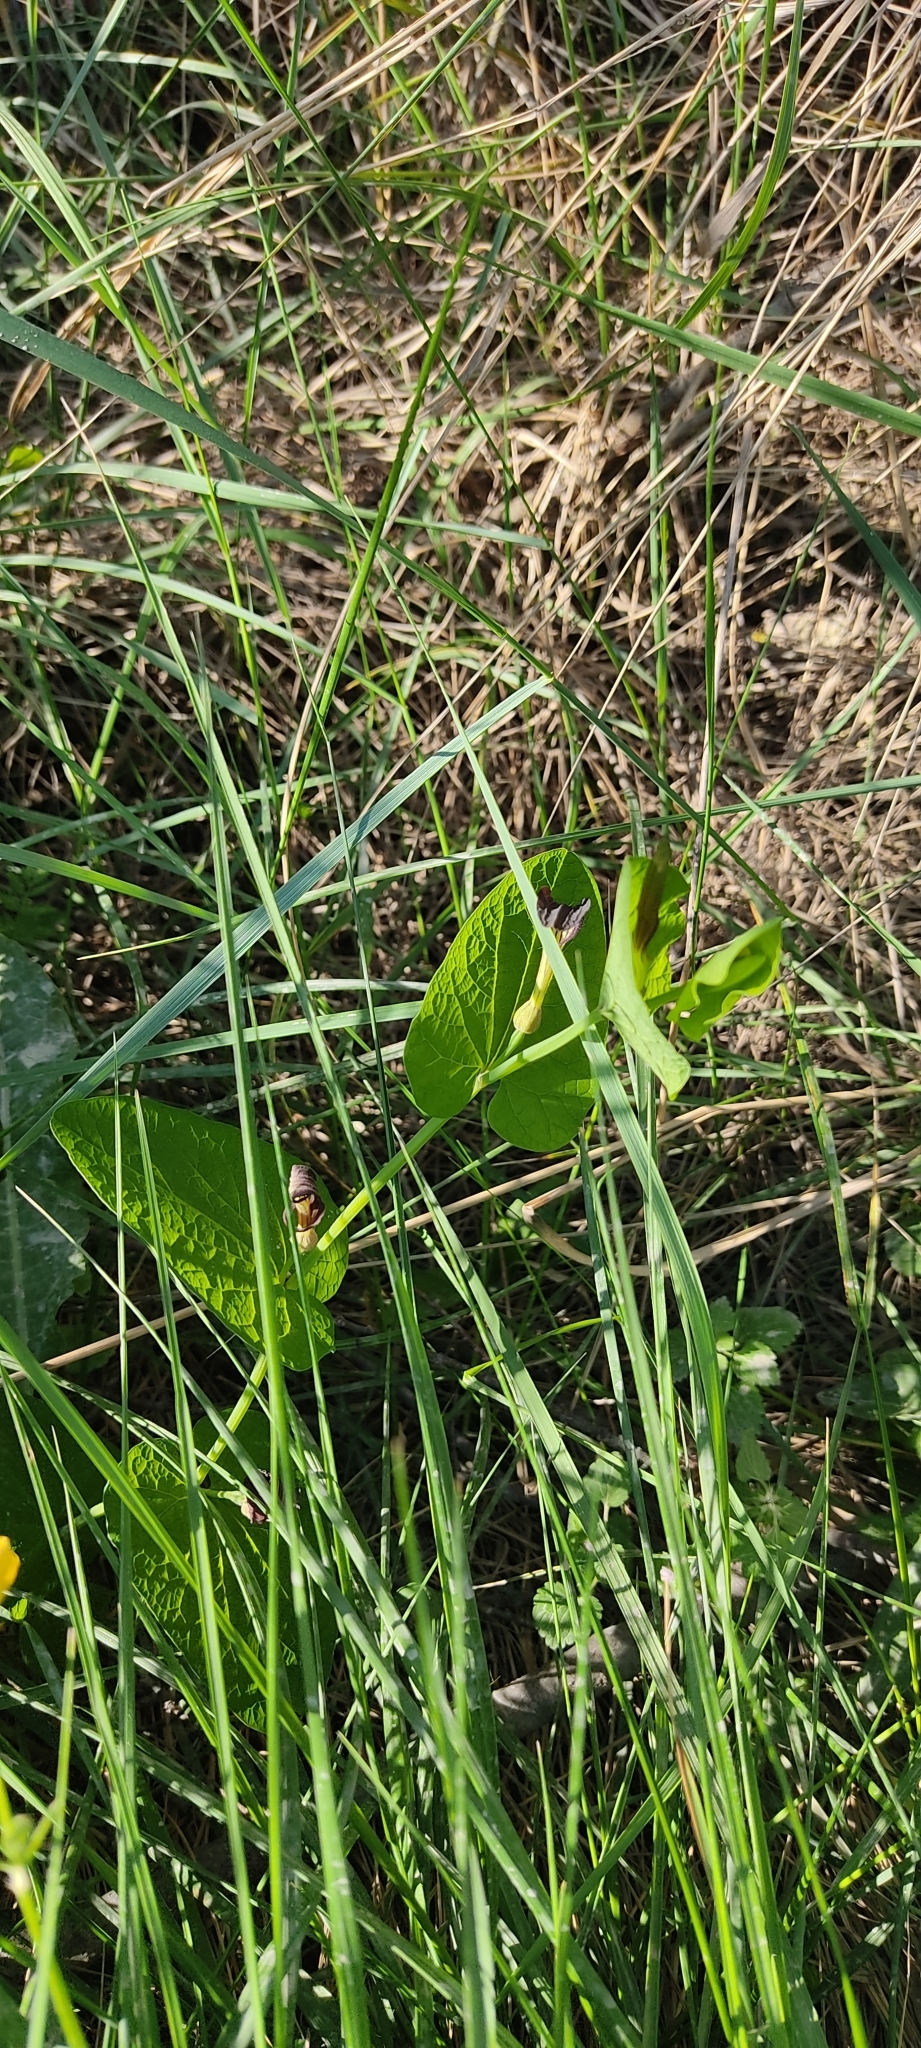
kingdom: Plantae
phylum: Tracheophyta
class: Magnoliopsida
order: Piperales
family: Aristolochiaceae
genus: Aristolochia
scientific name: Aristolochia rotunda
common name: Smearwort
